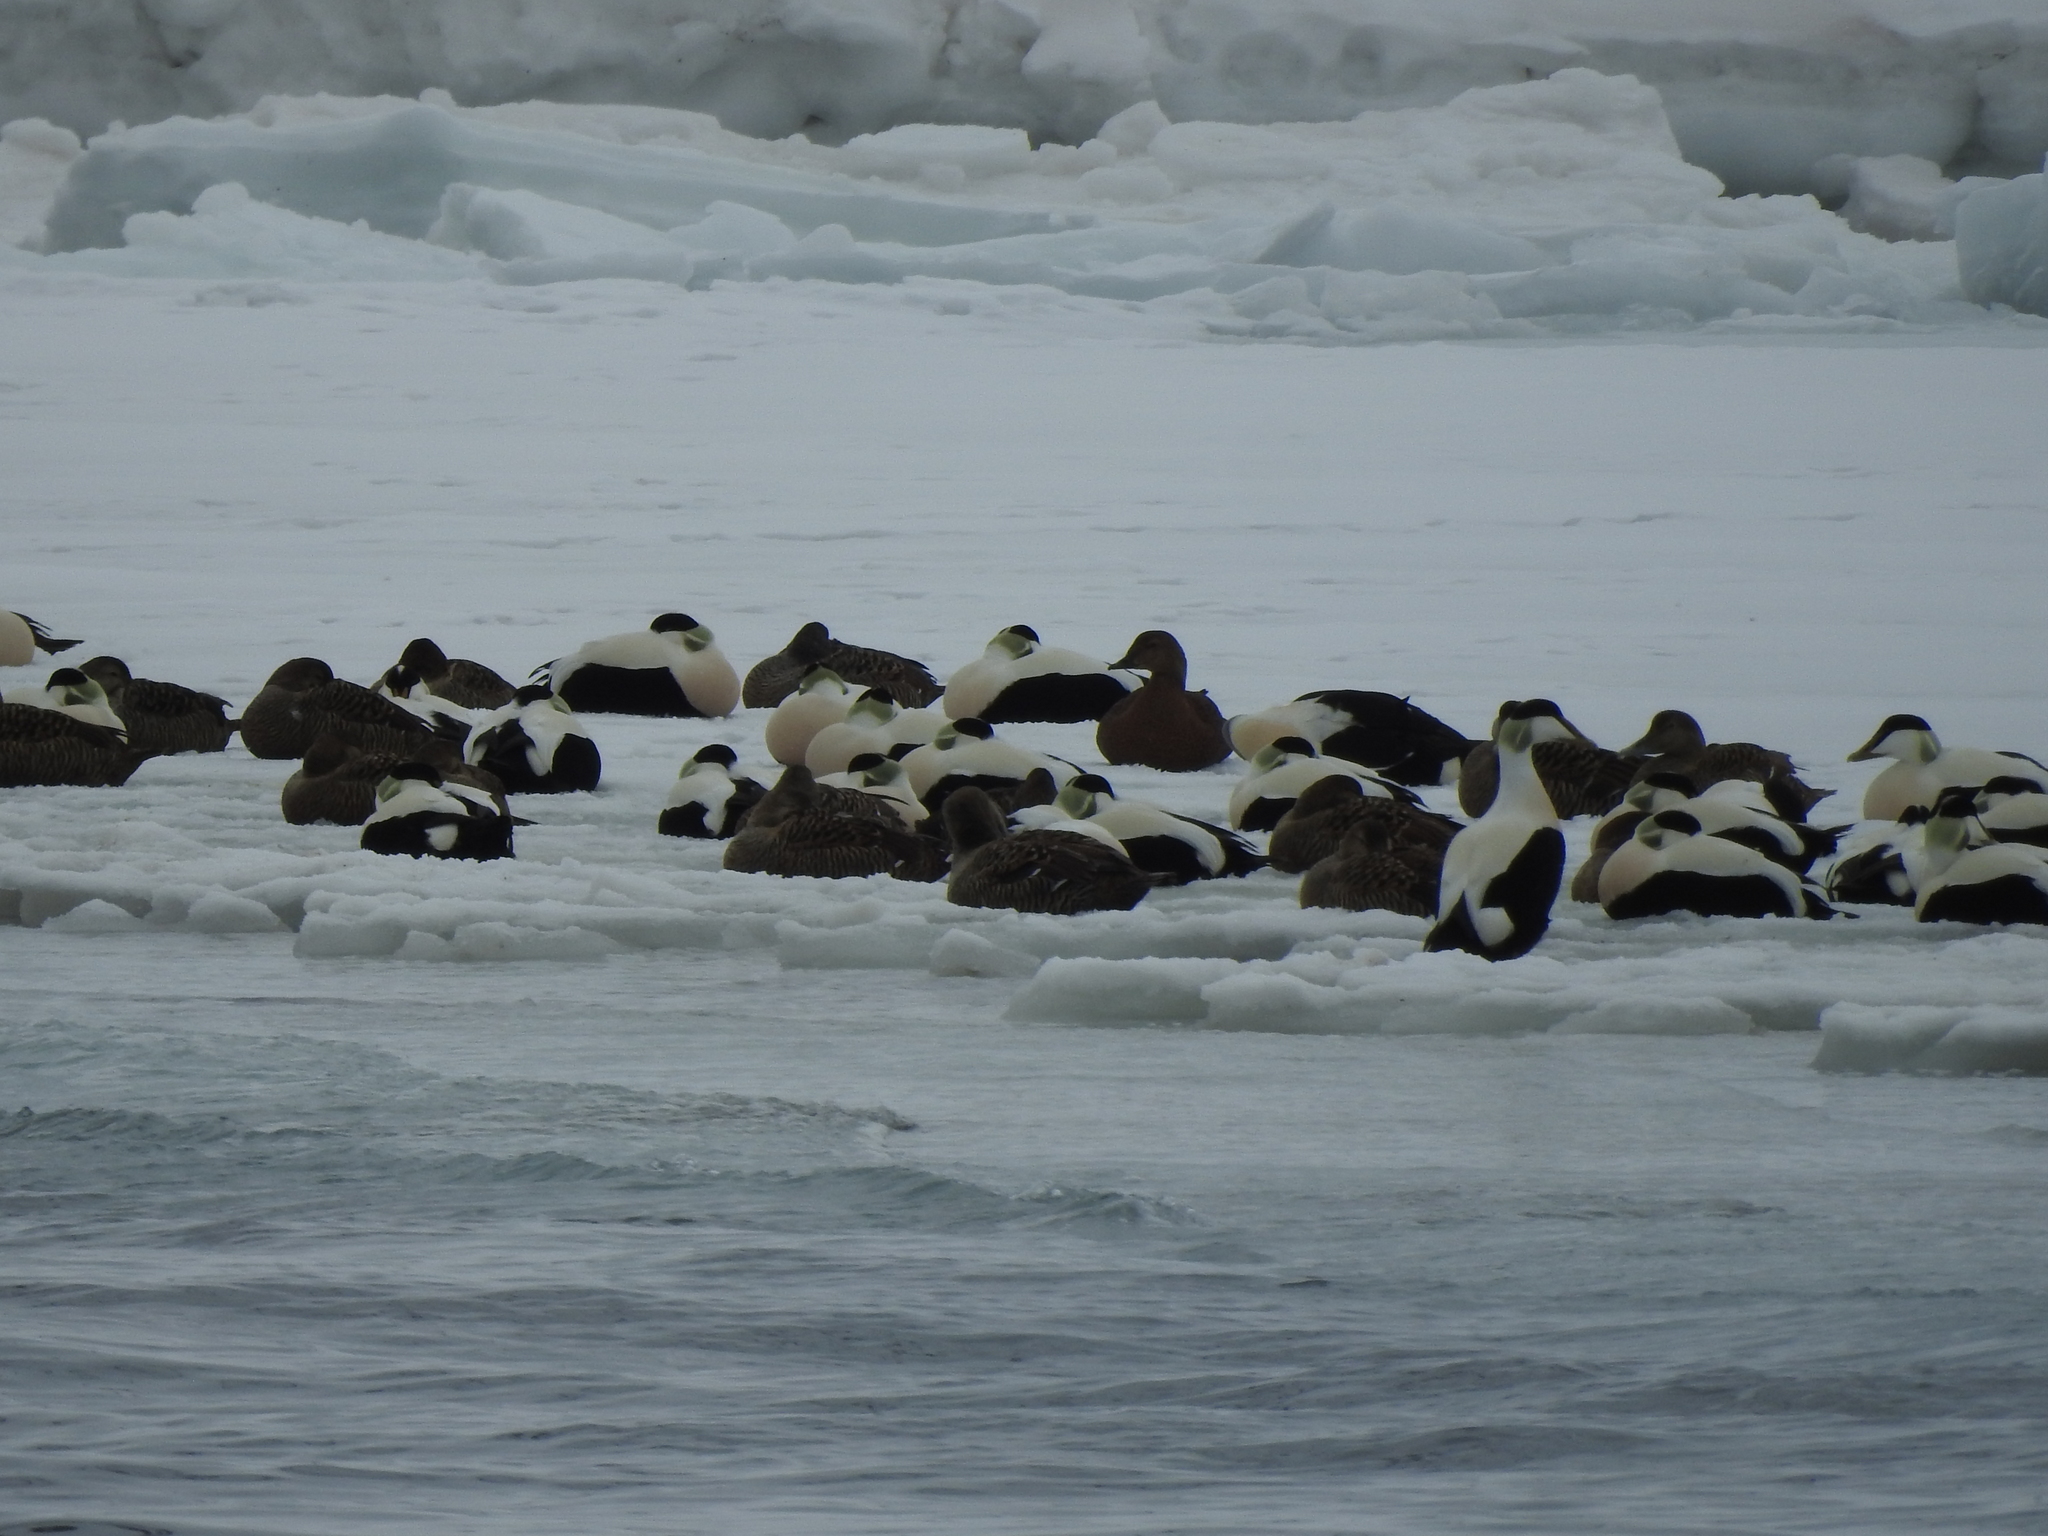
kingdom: Animalia
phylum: Chordata
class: Aves
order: Anseriformes
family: Anatidae
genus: Somateria
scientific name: Somateria mollissima
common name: Common eider
